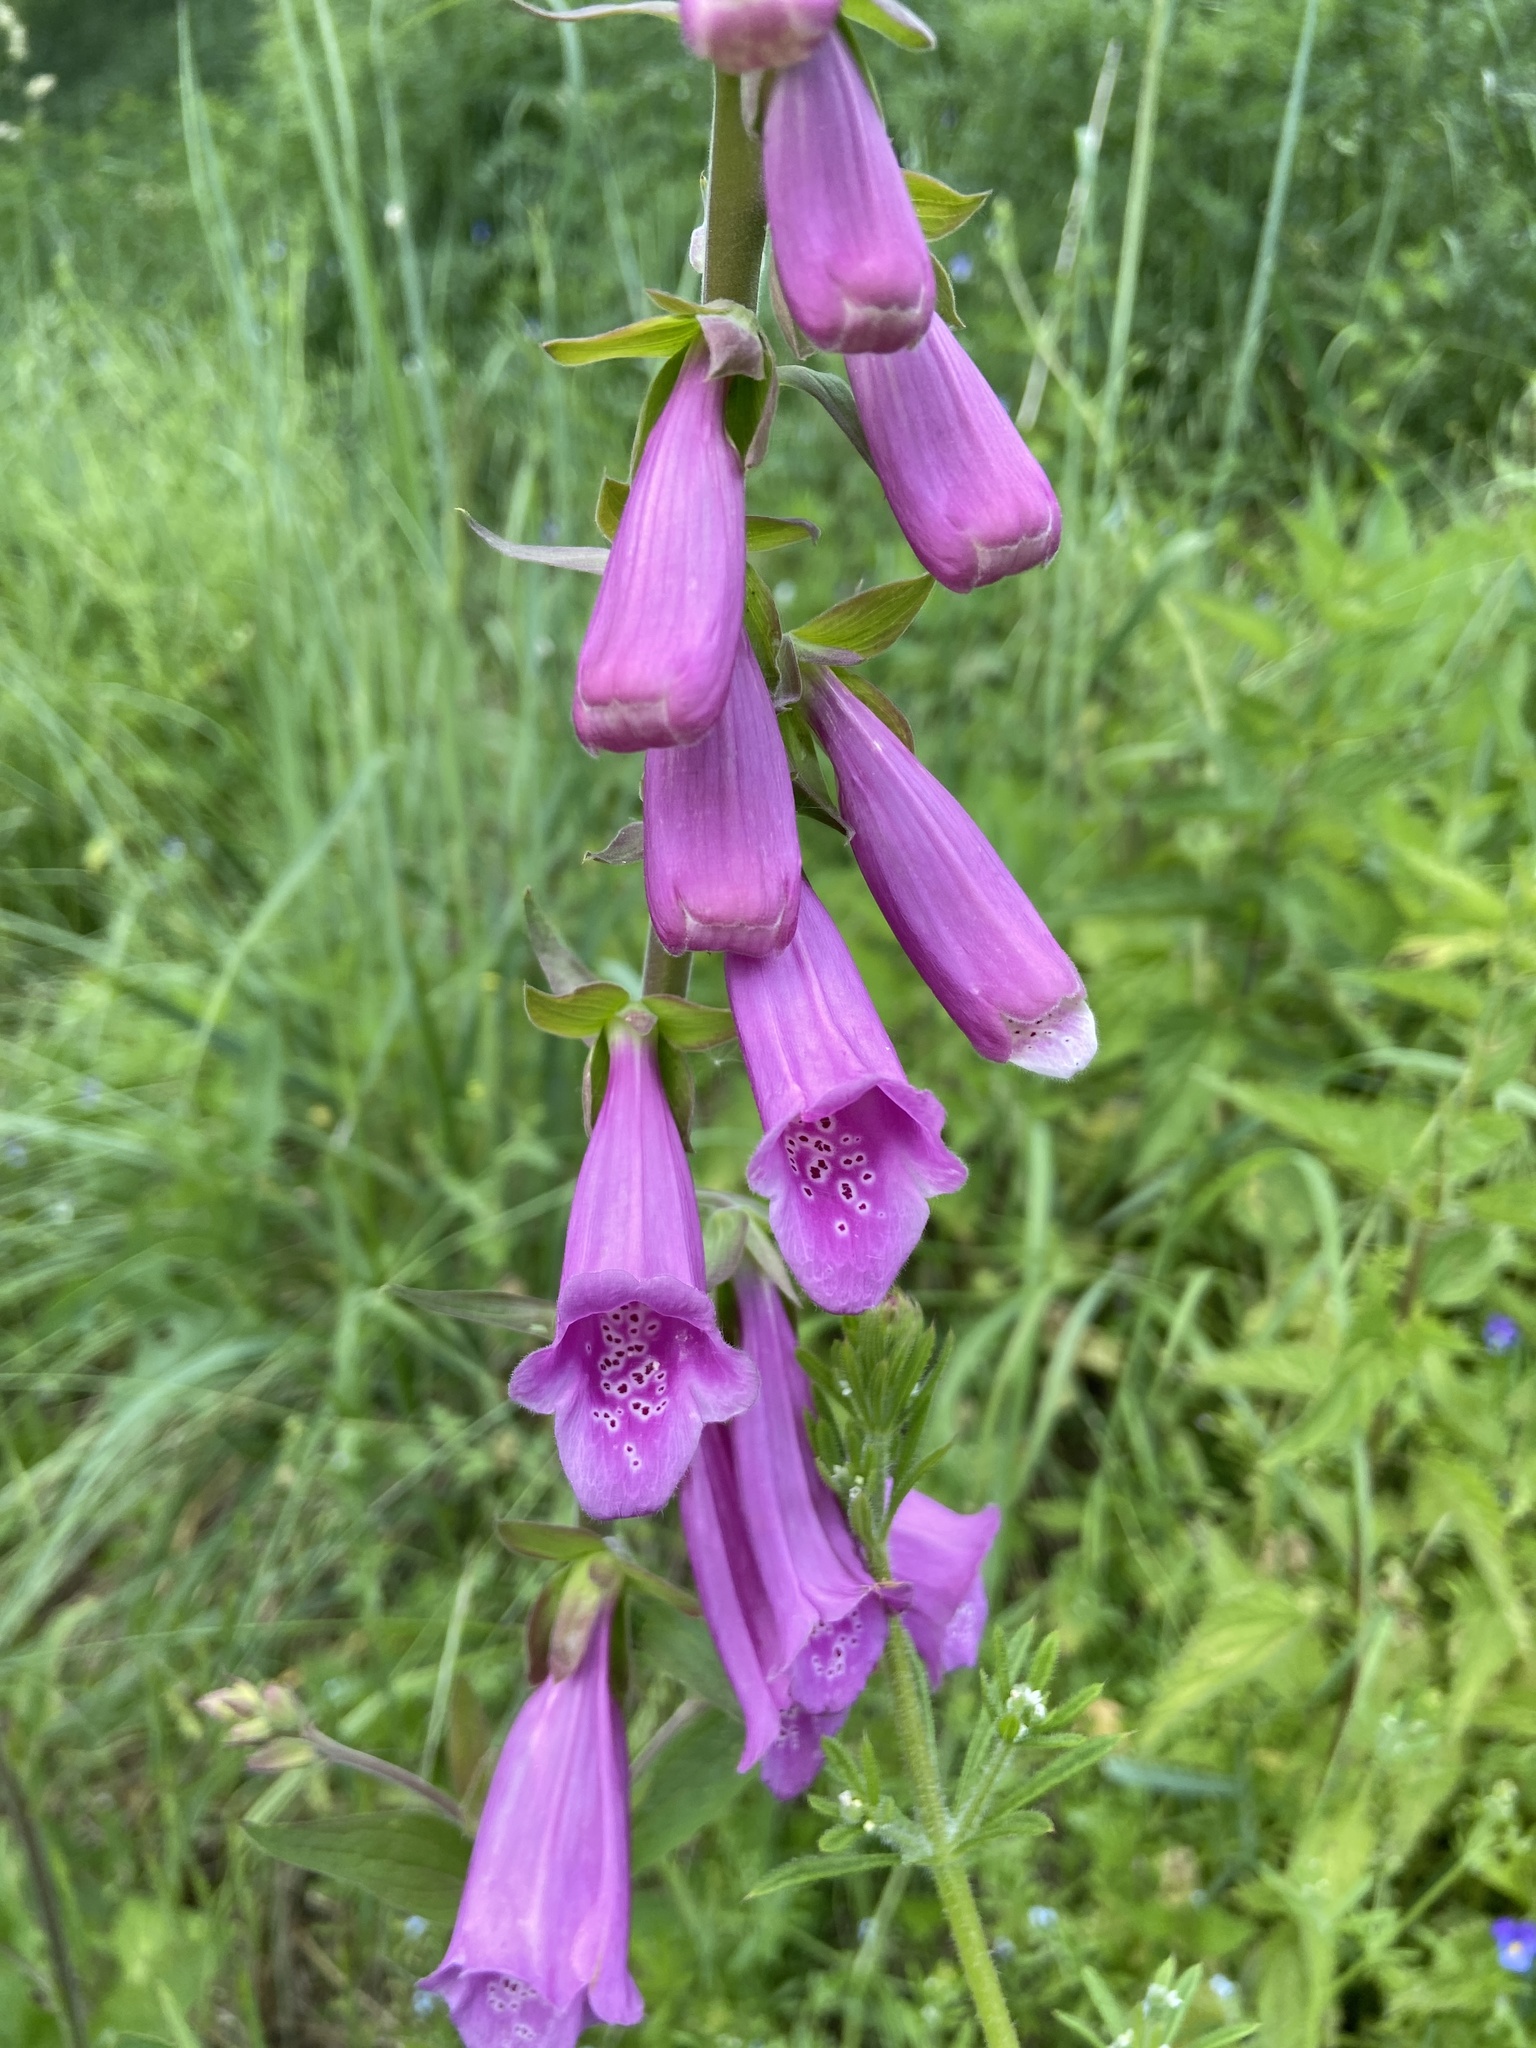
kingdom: Plantae
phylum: Tracheophyta
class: Magnoliopsida
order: Lamiales
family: Plantaginaceae
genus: Digitalis
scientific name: Digitalis purpurea
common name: Foxglove
